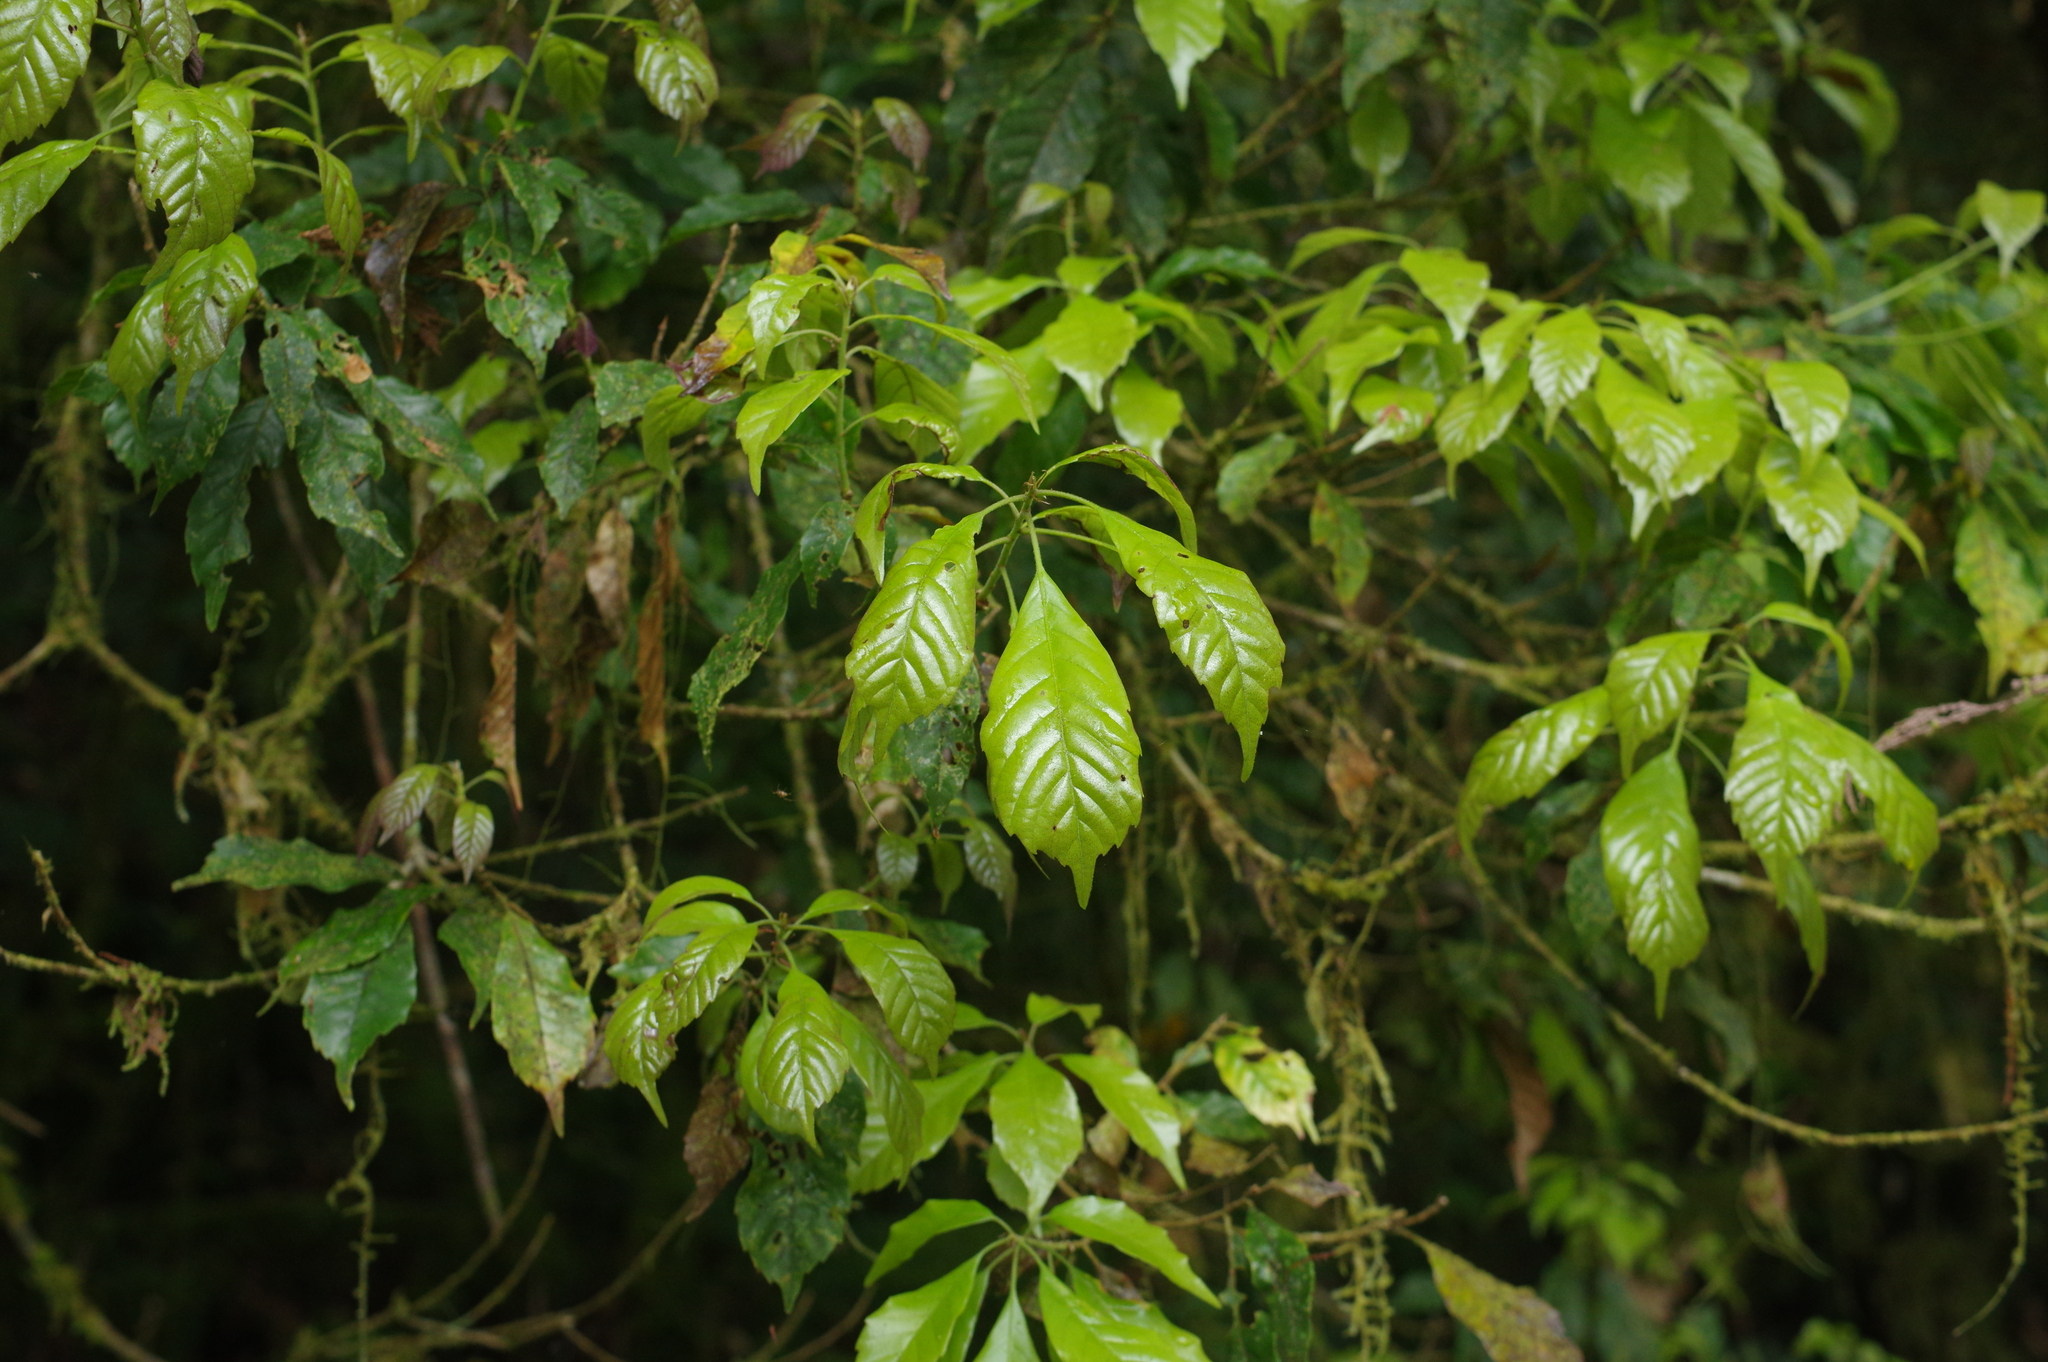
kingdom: Plantae
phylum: Tracheophyta
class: Magnoliopsida
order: Fagales
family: Fagaceae
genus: Lithocarpus
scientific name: Lithocarpus corneus
